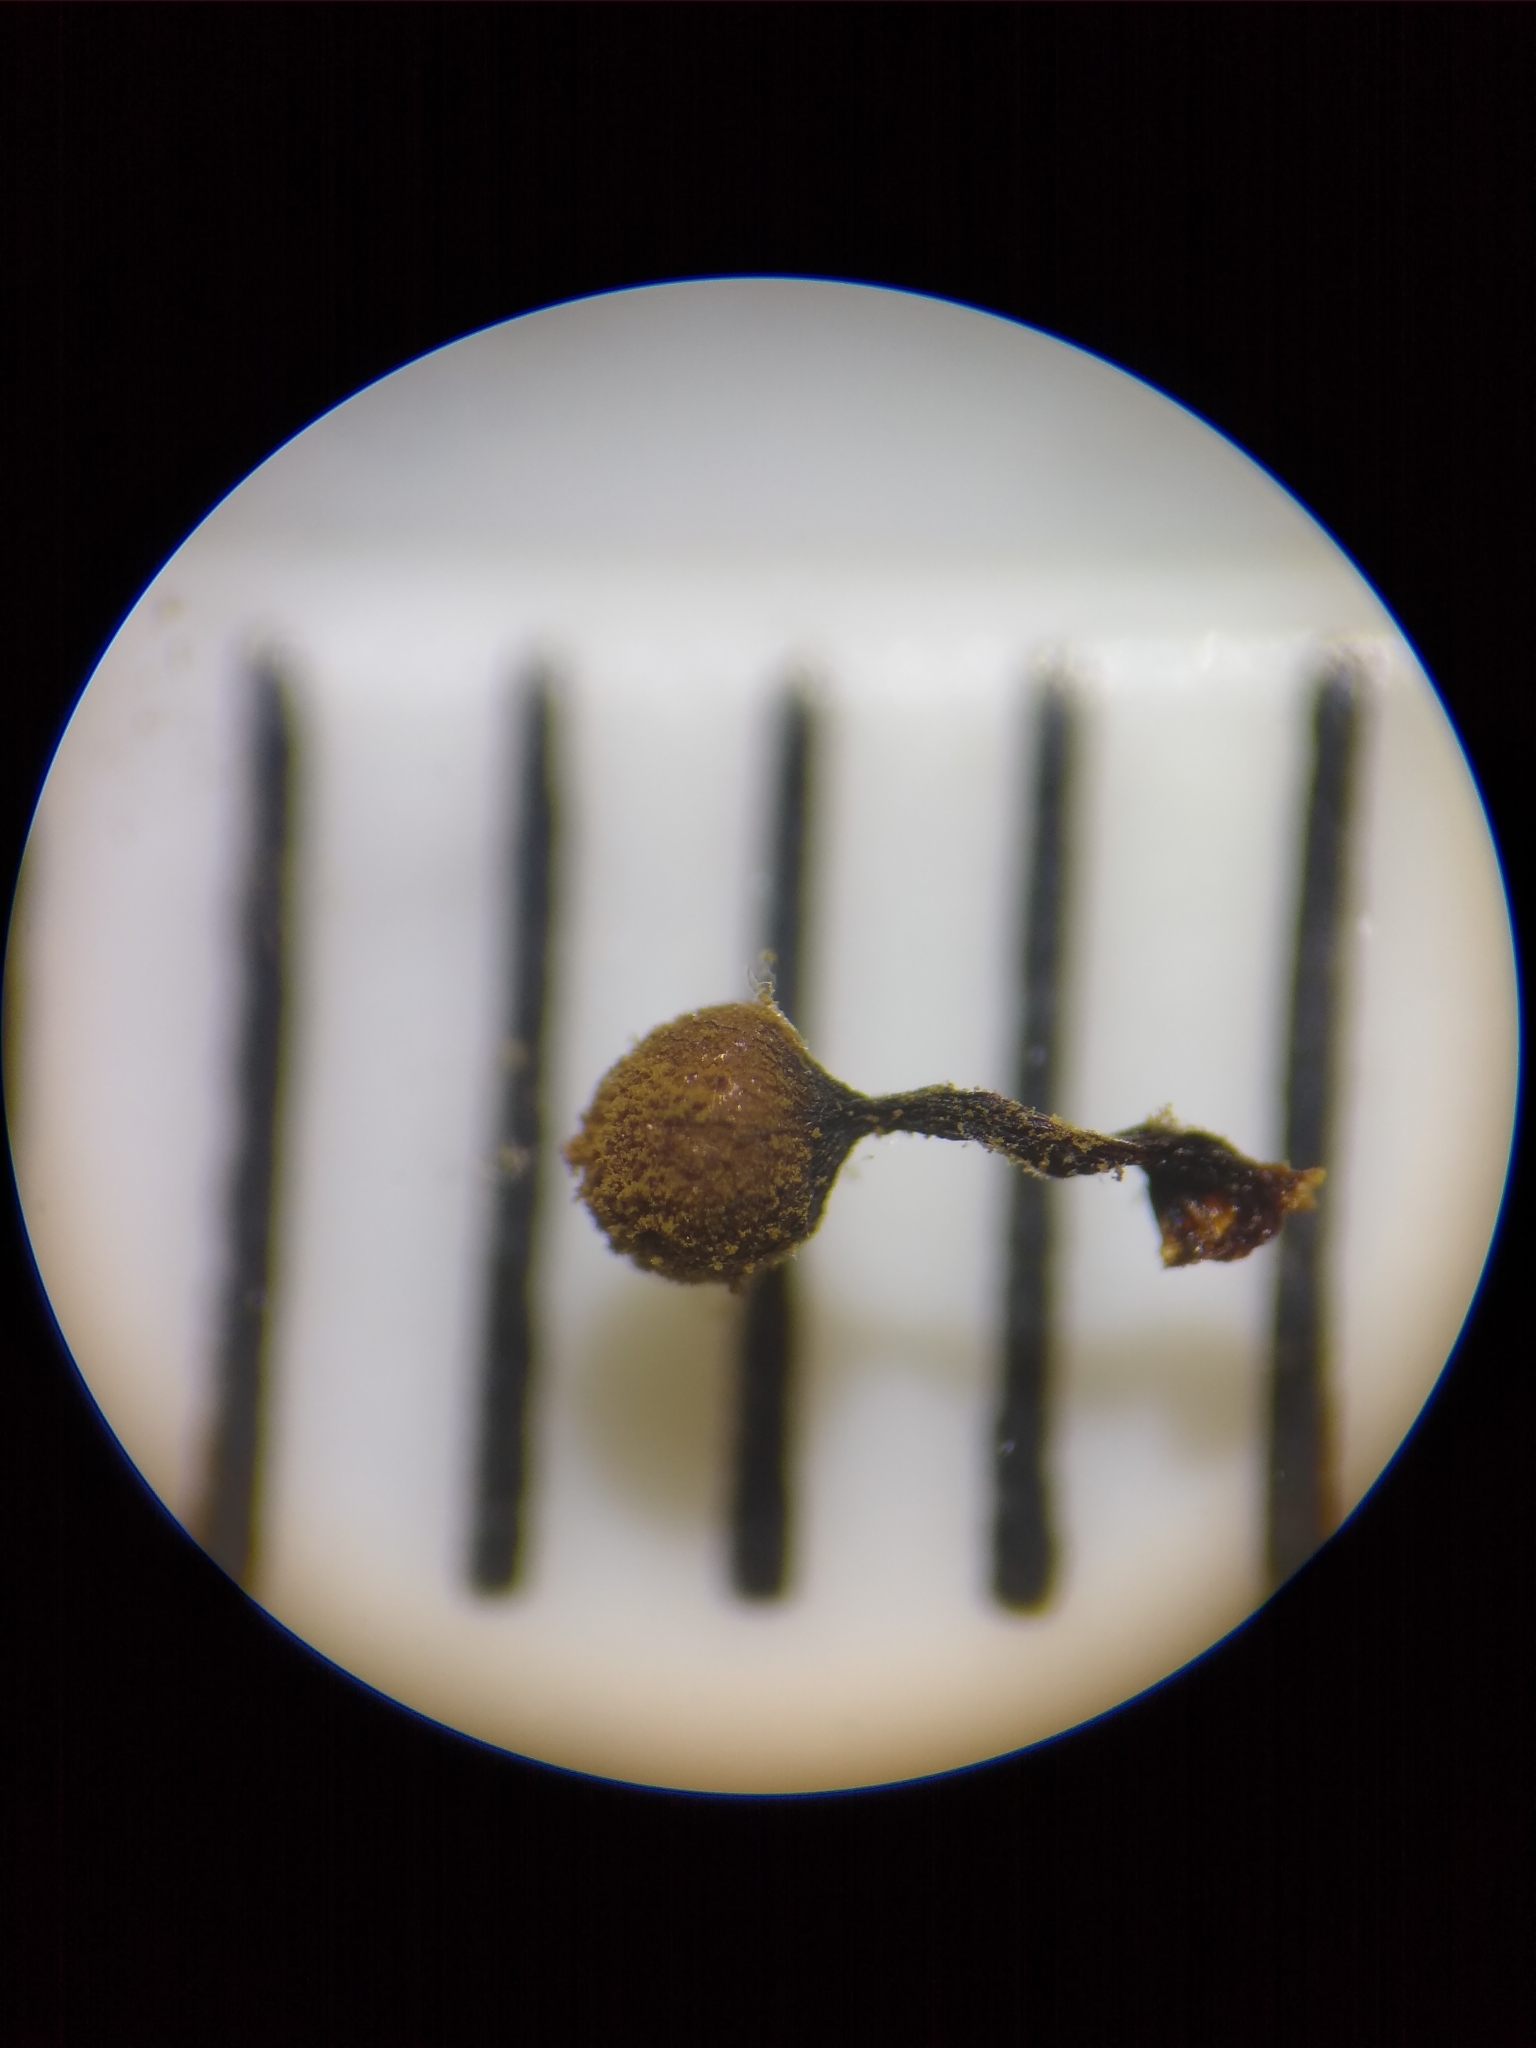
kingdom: Protozoa
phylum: Mycetozoa
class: Myxomycetes
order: Cribrariales
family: Cribrariaceae
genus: Cribraria
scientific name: Cribraria macrocarpa
